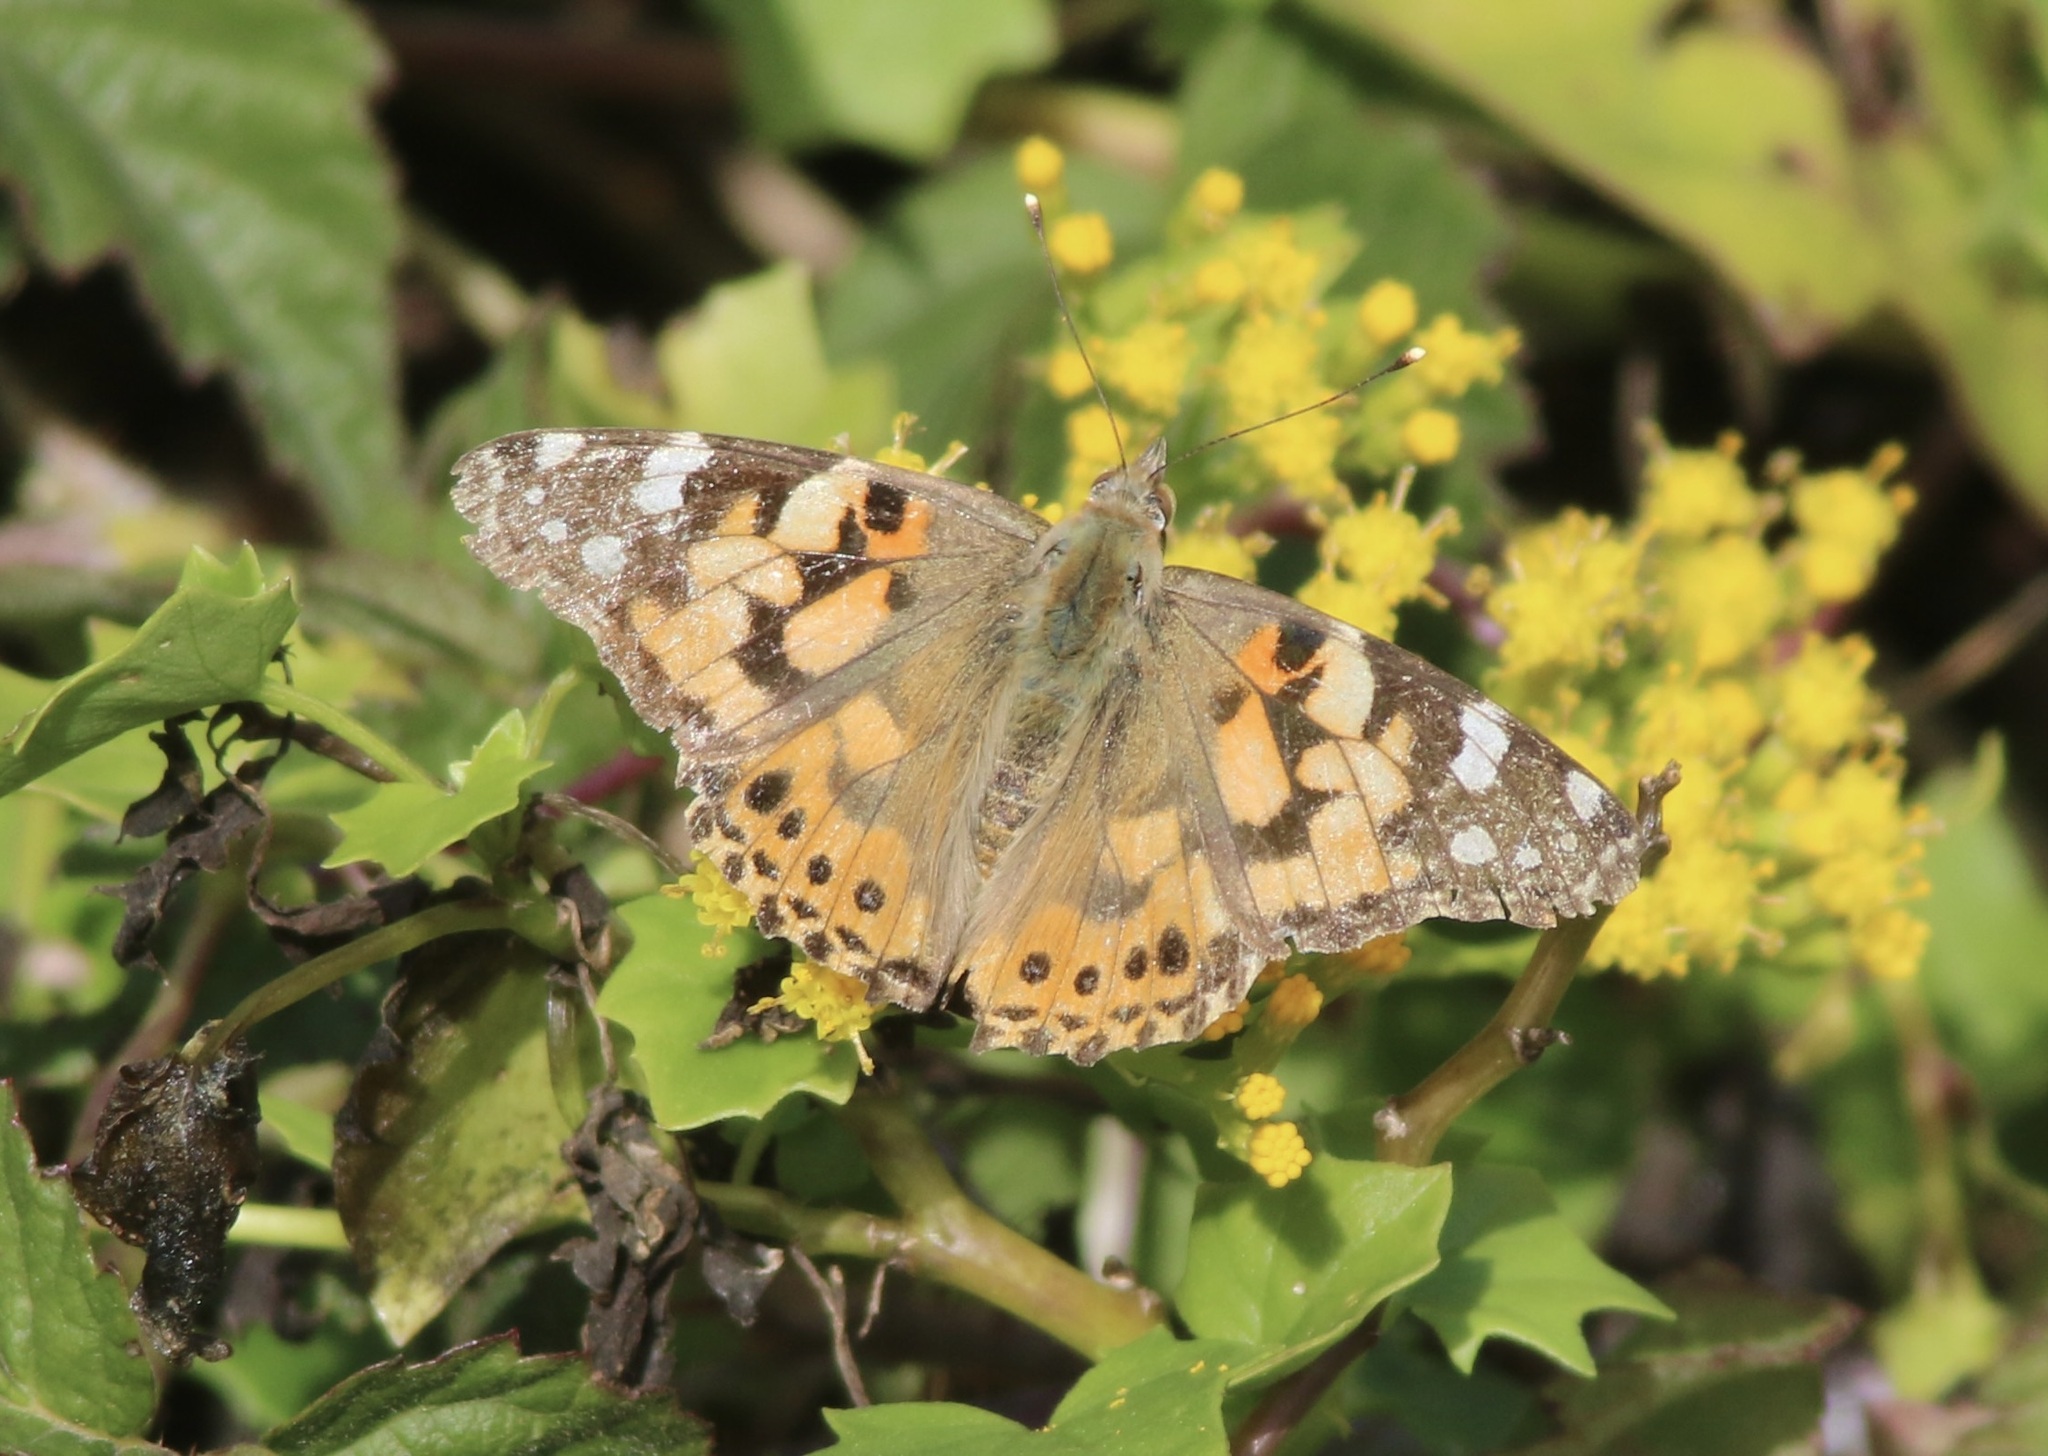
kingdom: Animalia
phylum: Arthropoda
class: Insecta
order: Lepidoptera
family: Nymphalidae
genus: Vanessa
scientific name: Vanessa cardui
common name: Painted lady
